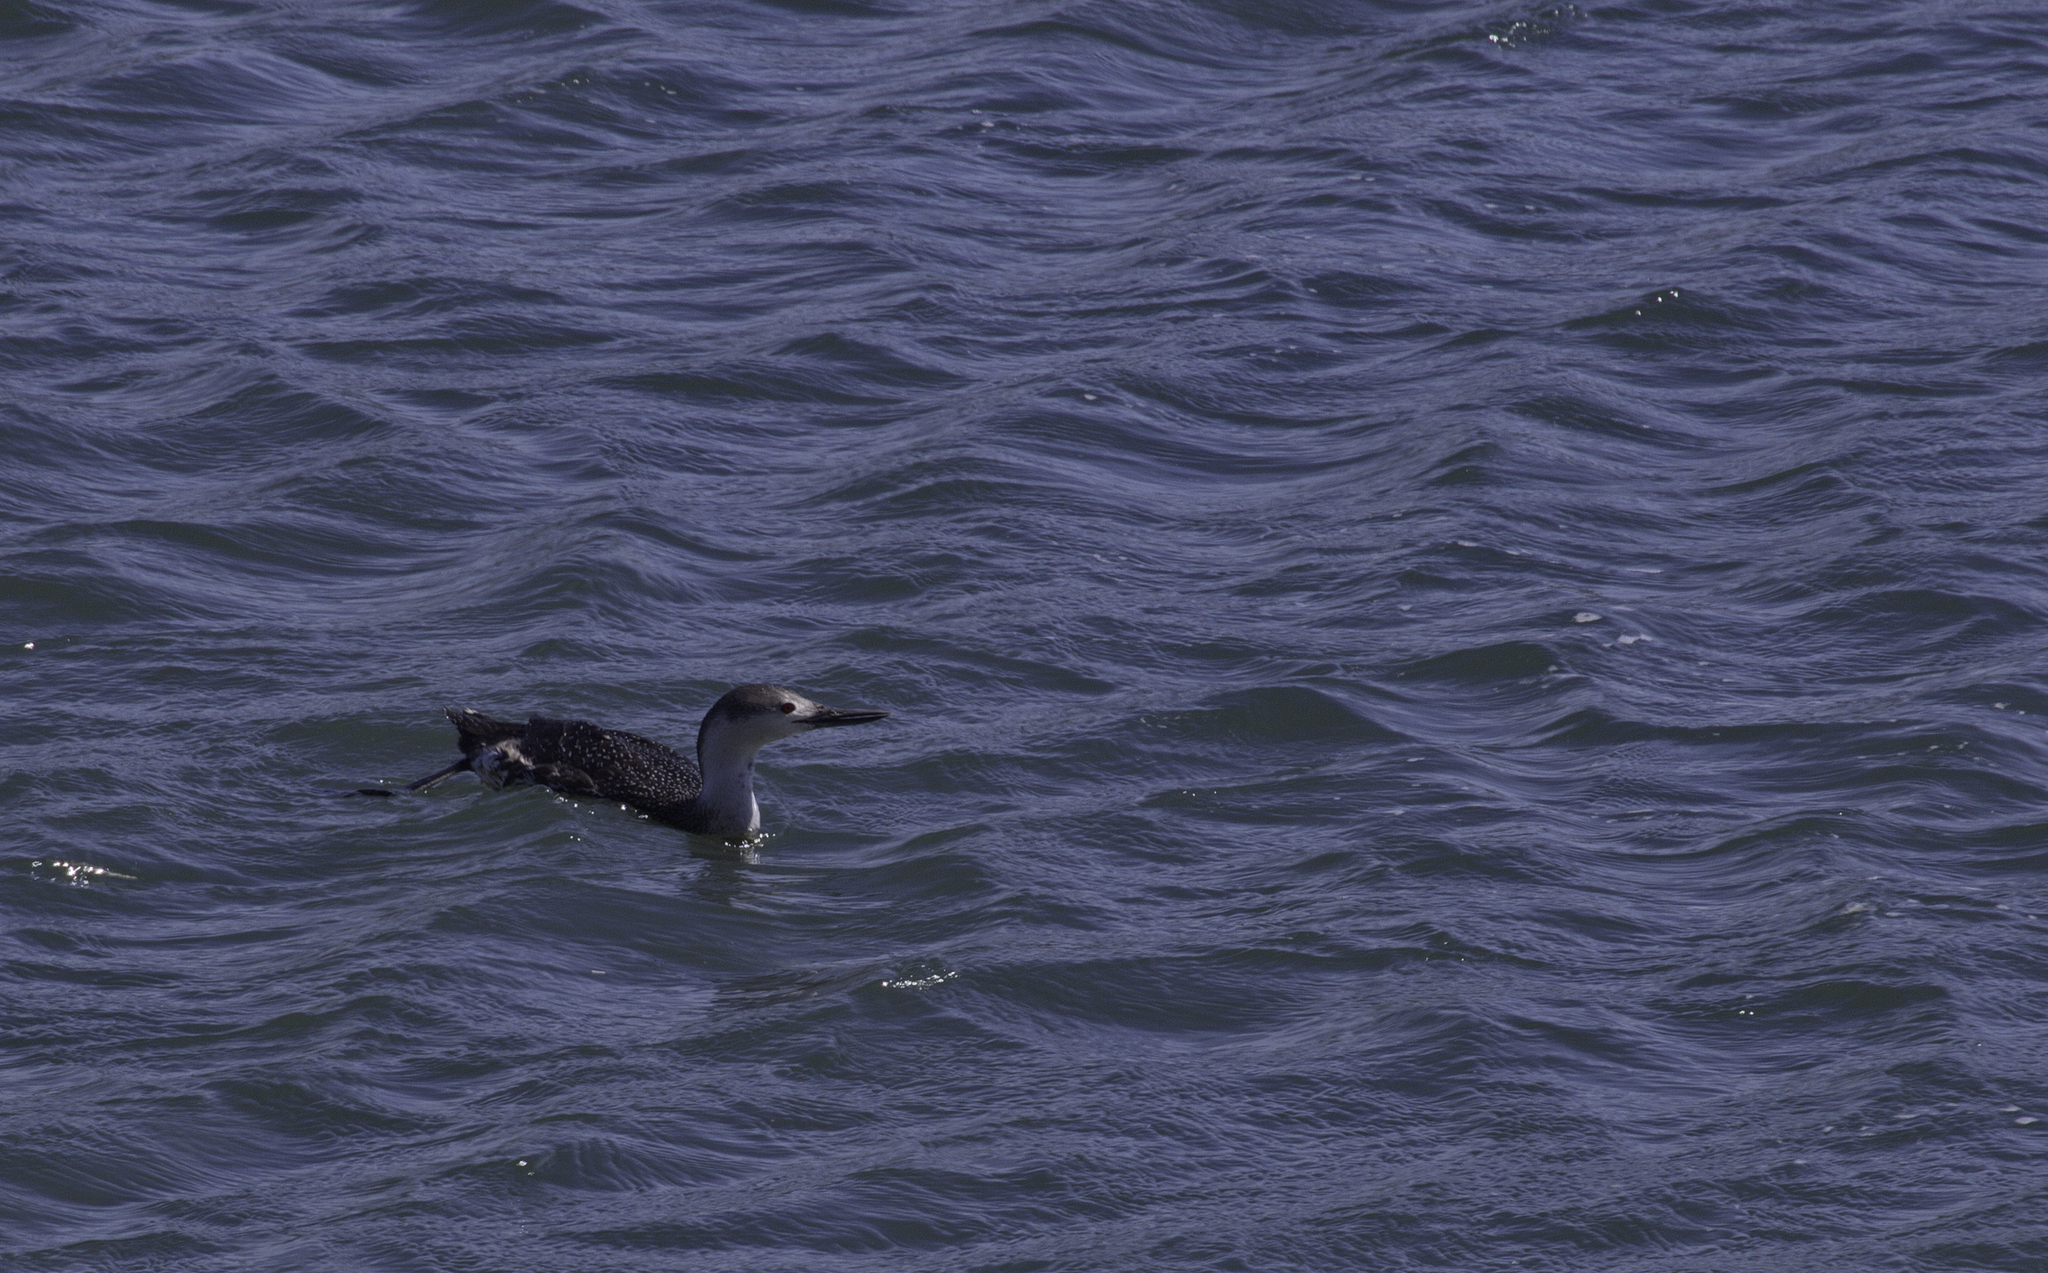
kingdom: Animalia
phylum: Chordata
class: Aves
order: Gaviiformes
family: Gaviidae
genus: Gavia
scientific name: Gavia stellata
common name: Red-throated loon
